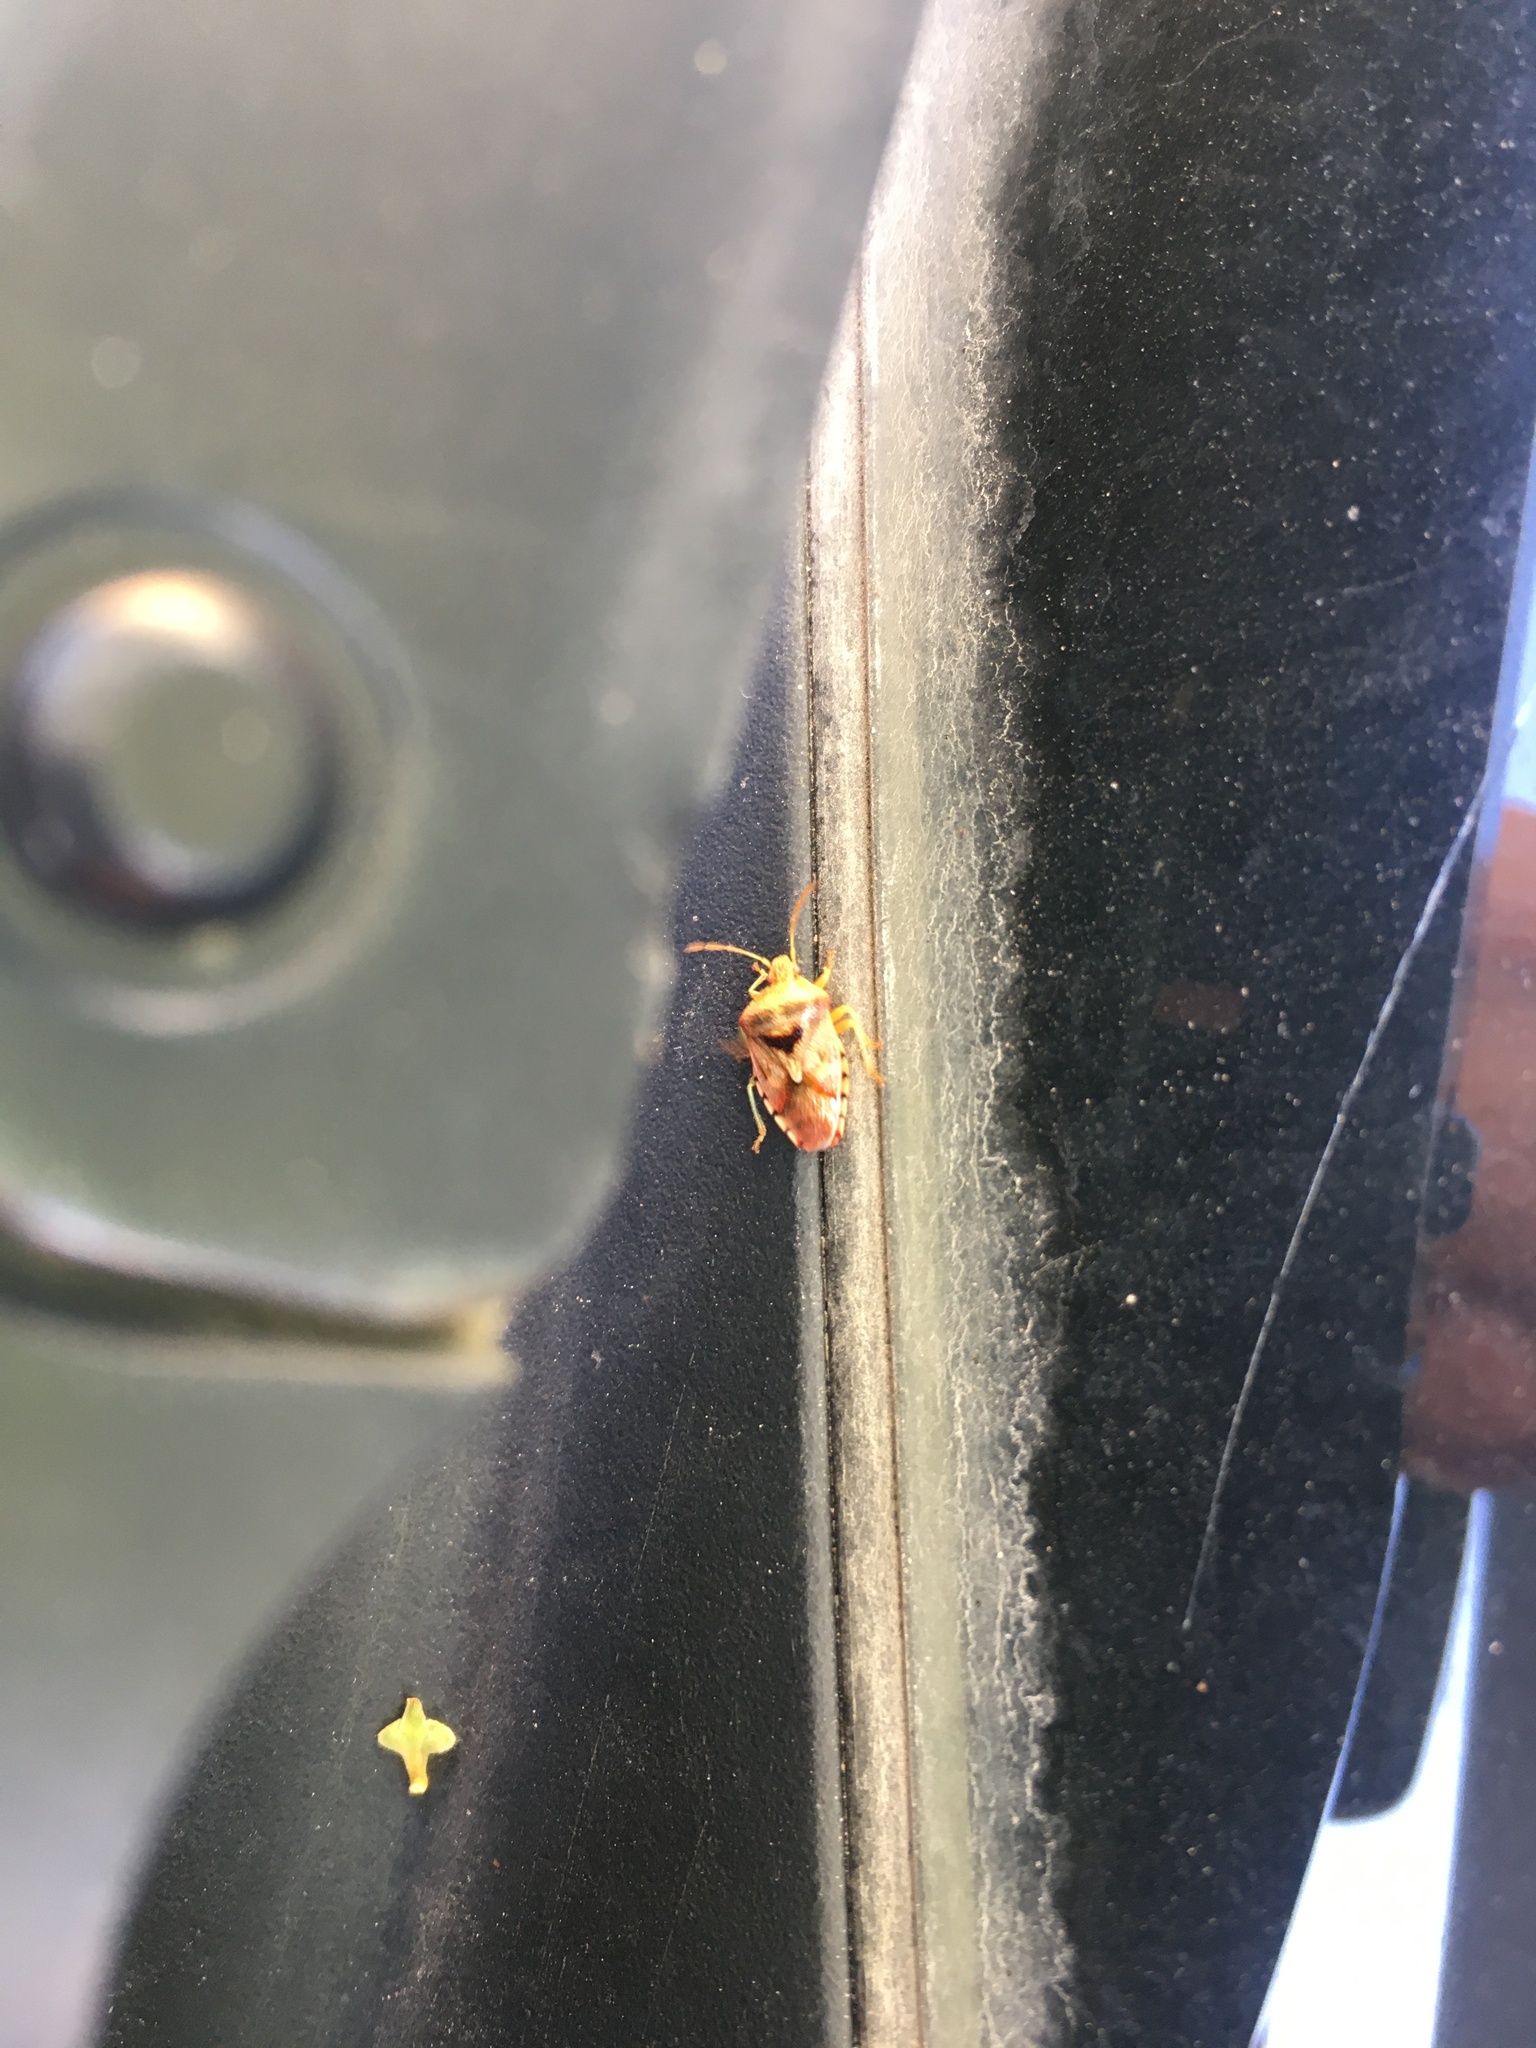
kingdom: Animalia
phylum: Arthropoda
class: Insecta
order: Hemiptera
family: Acanthosomatidae
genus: Elasmucha
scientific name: Elasmucha grisea
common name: Parent bug
